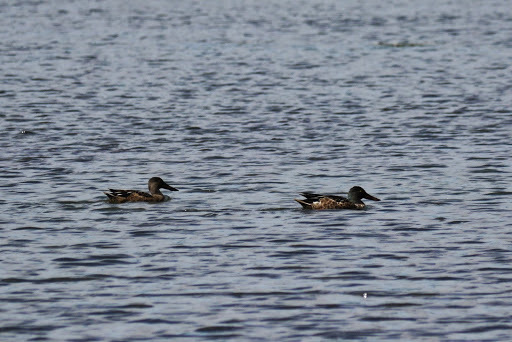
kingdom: Animalia
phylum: Chordata
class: Aves
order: Anseriformes
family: Anatidae
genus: Spatula
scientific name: Spatula clypeata
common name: Northern shoveler
